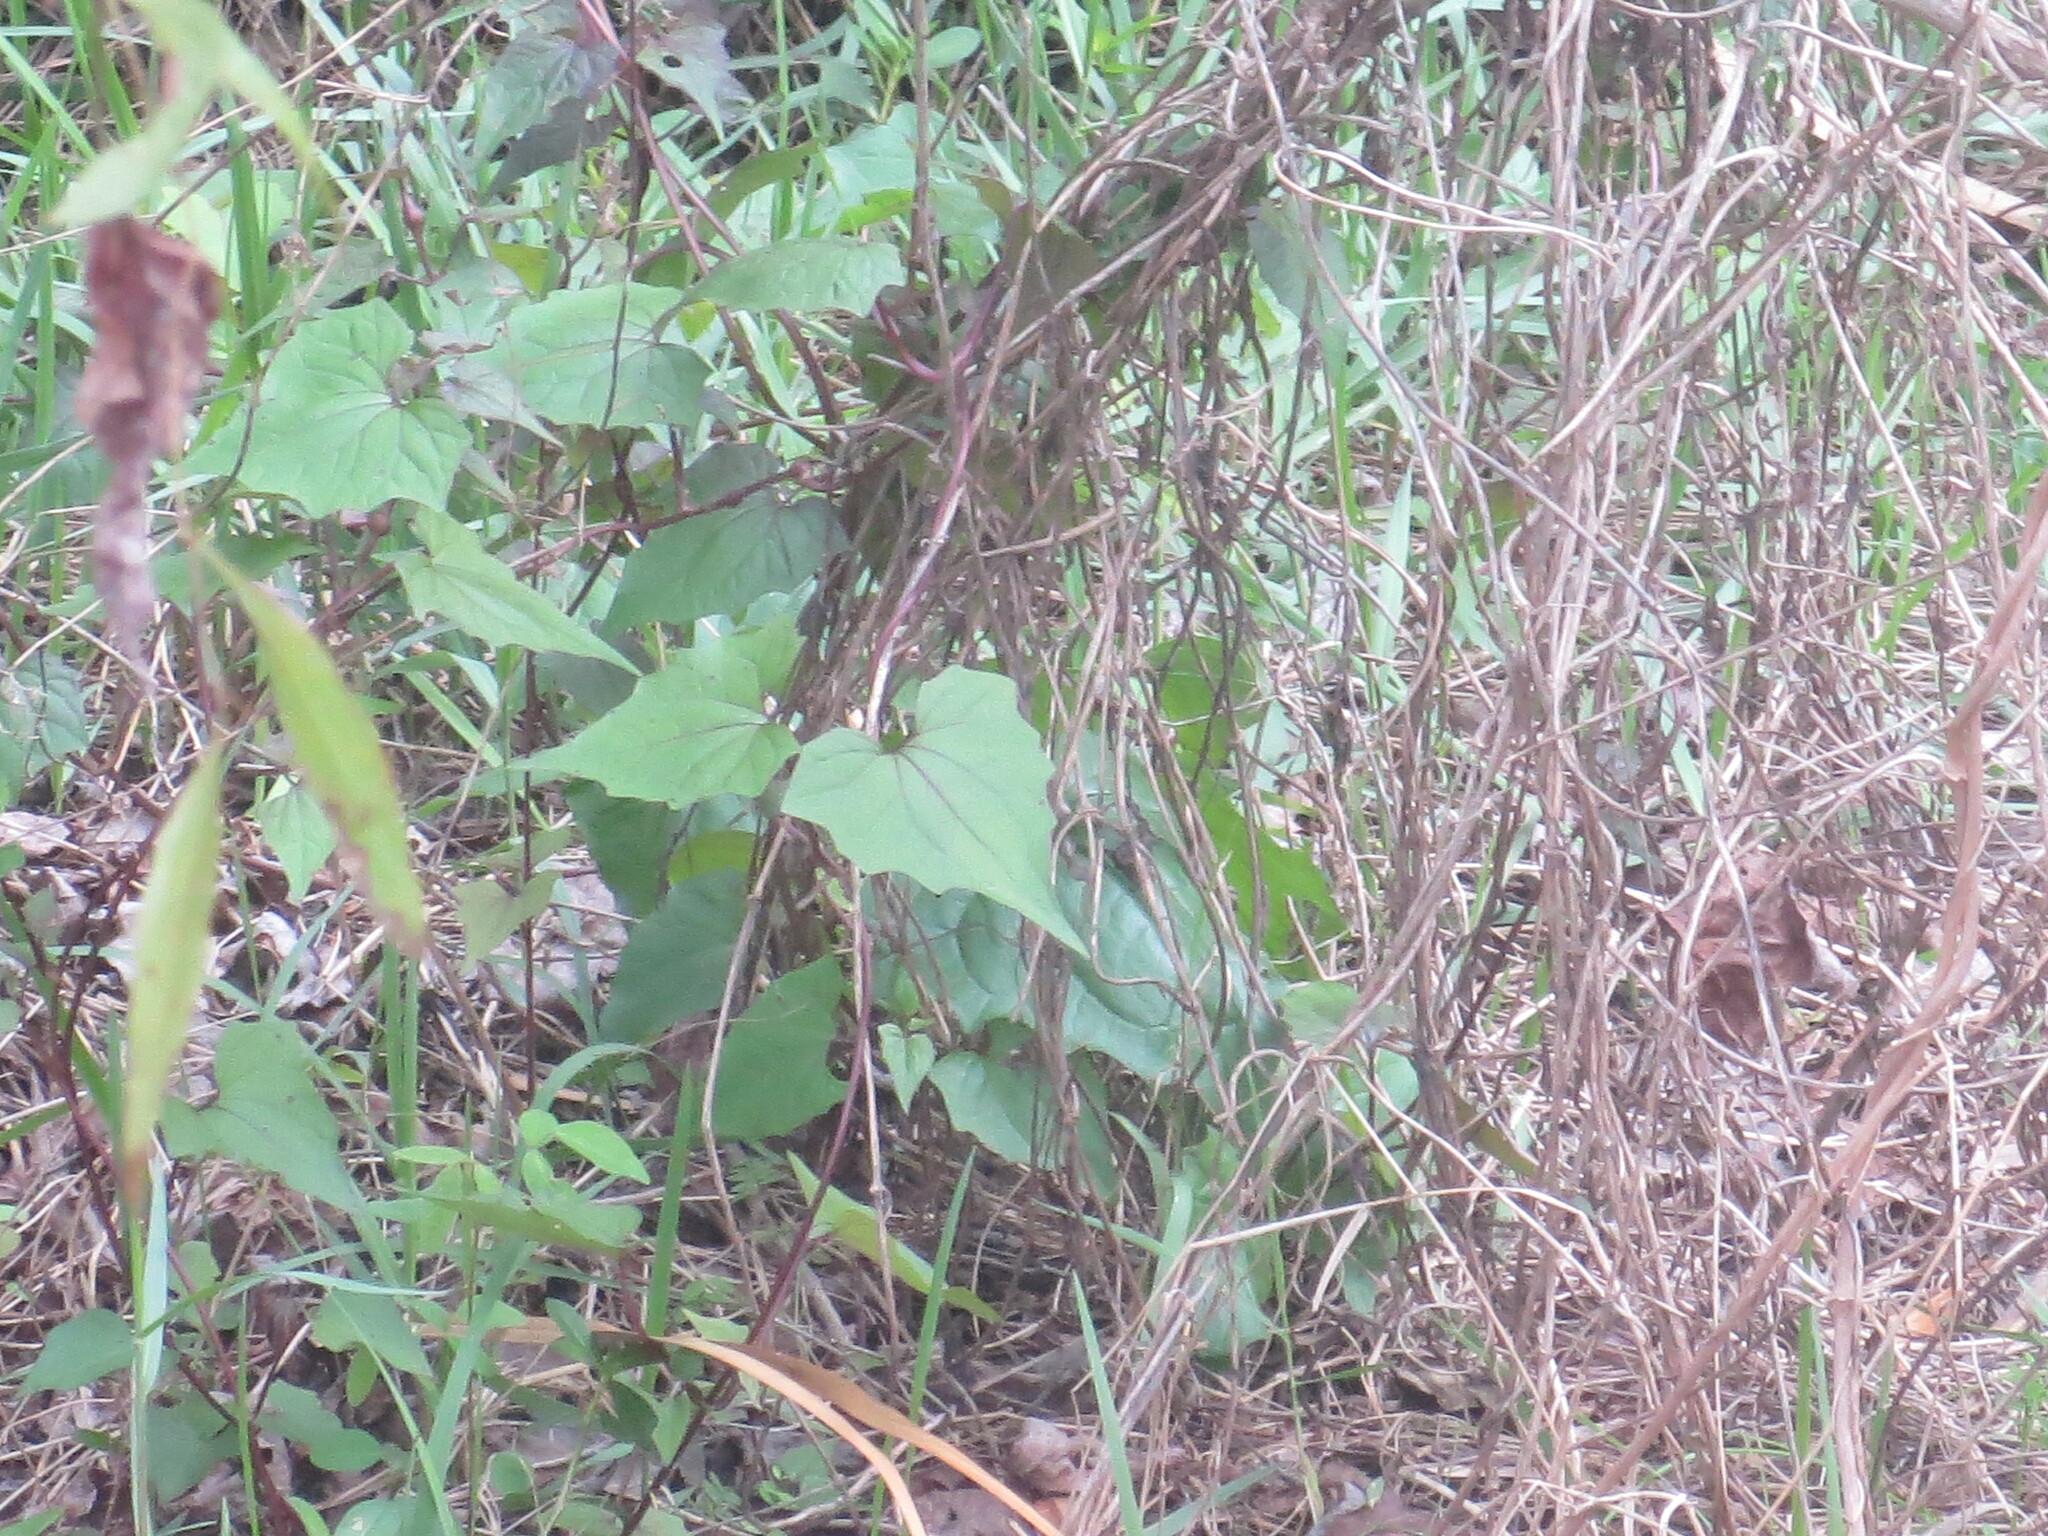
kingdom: Plantae
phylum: Tracheophyta
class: Magnoliopsida
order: Asterales
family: Asteraceae
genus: Mikania
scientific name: Mikania scandens
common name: Climbing hempvine
